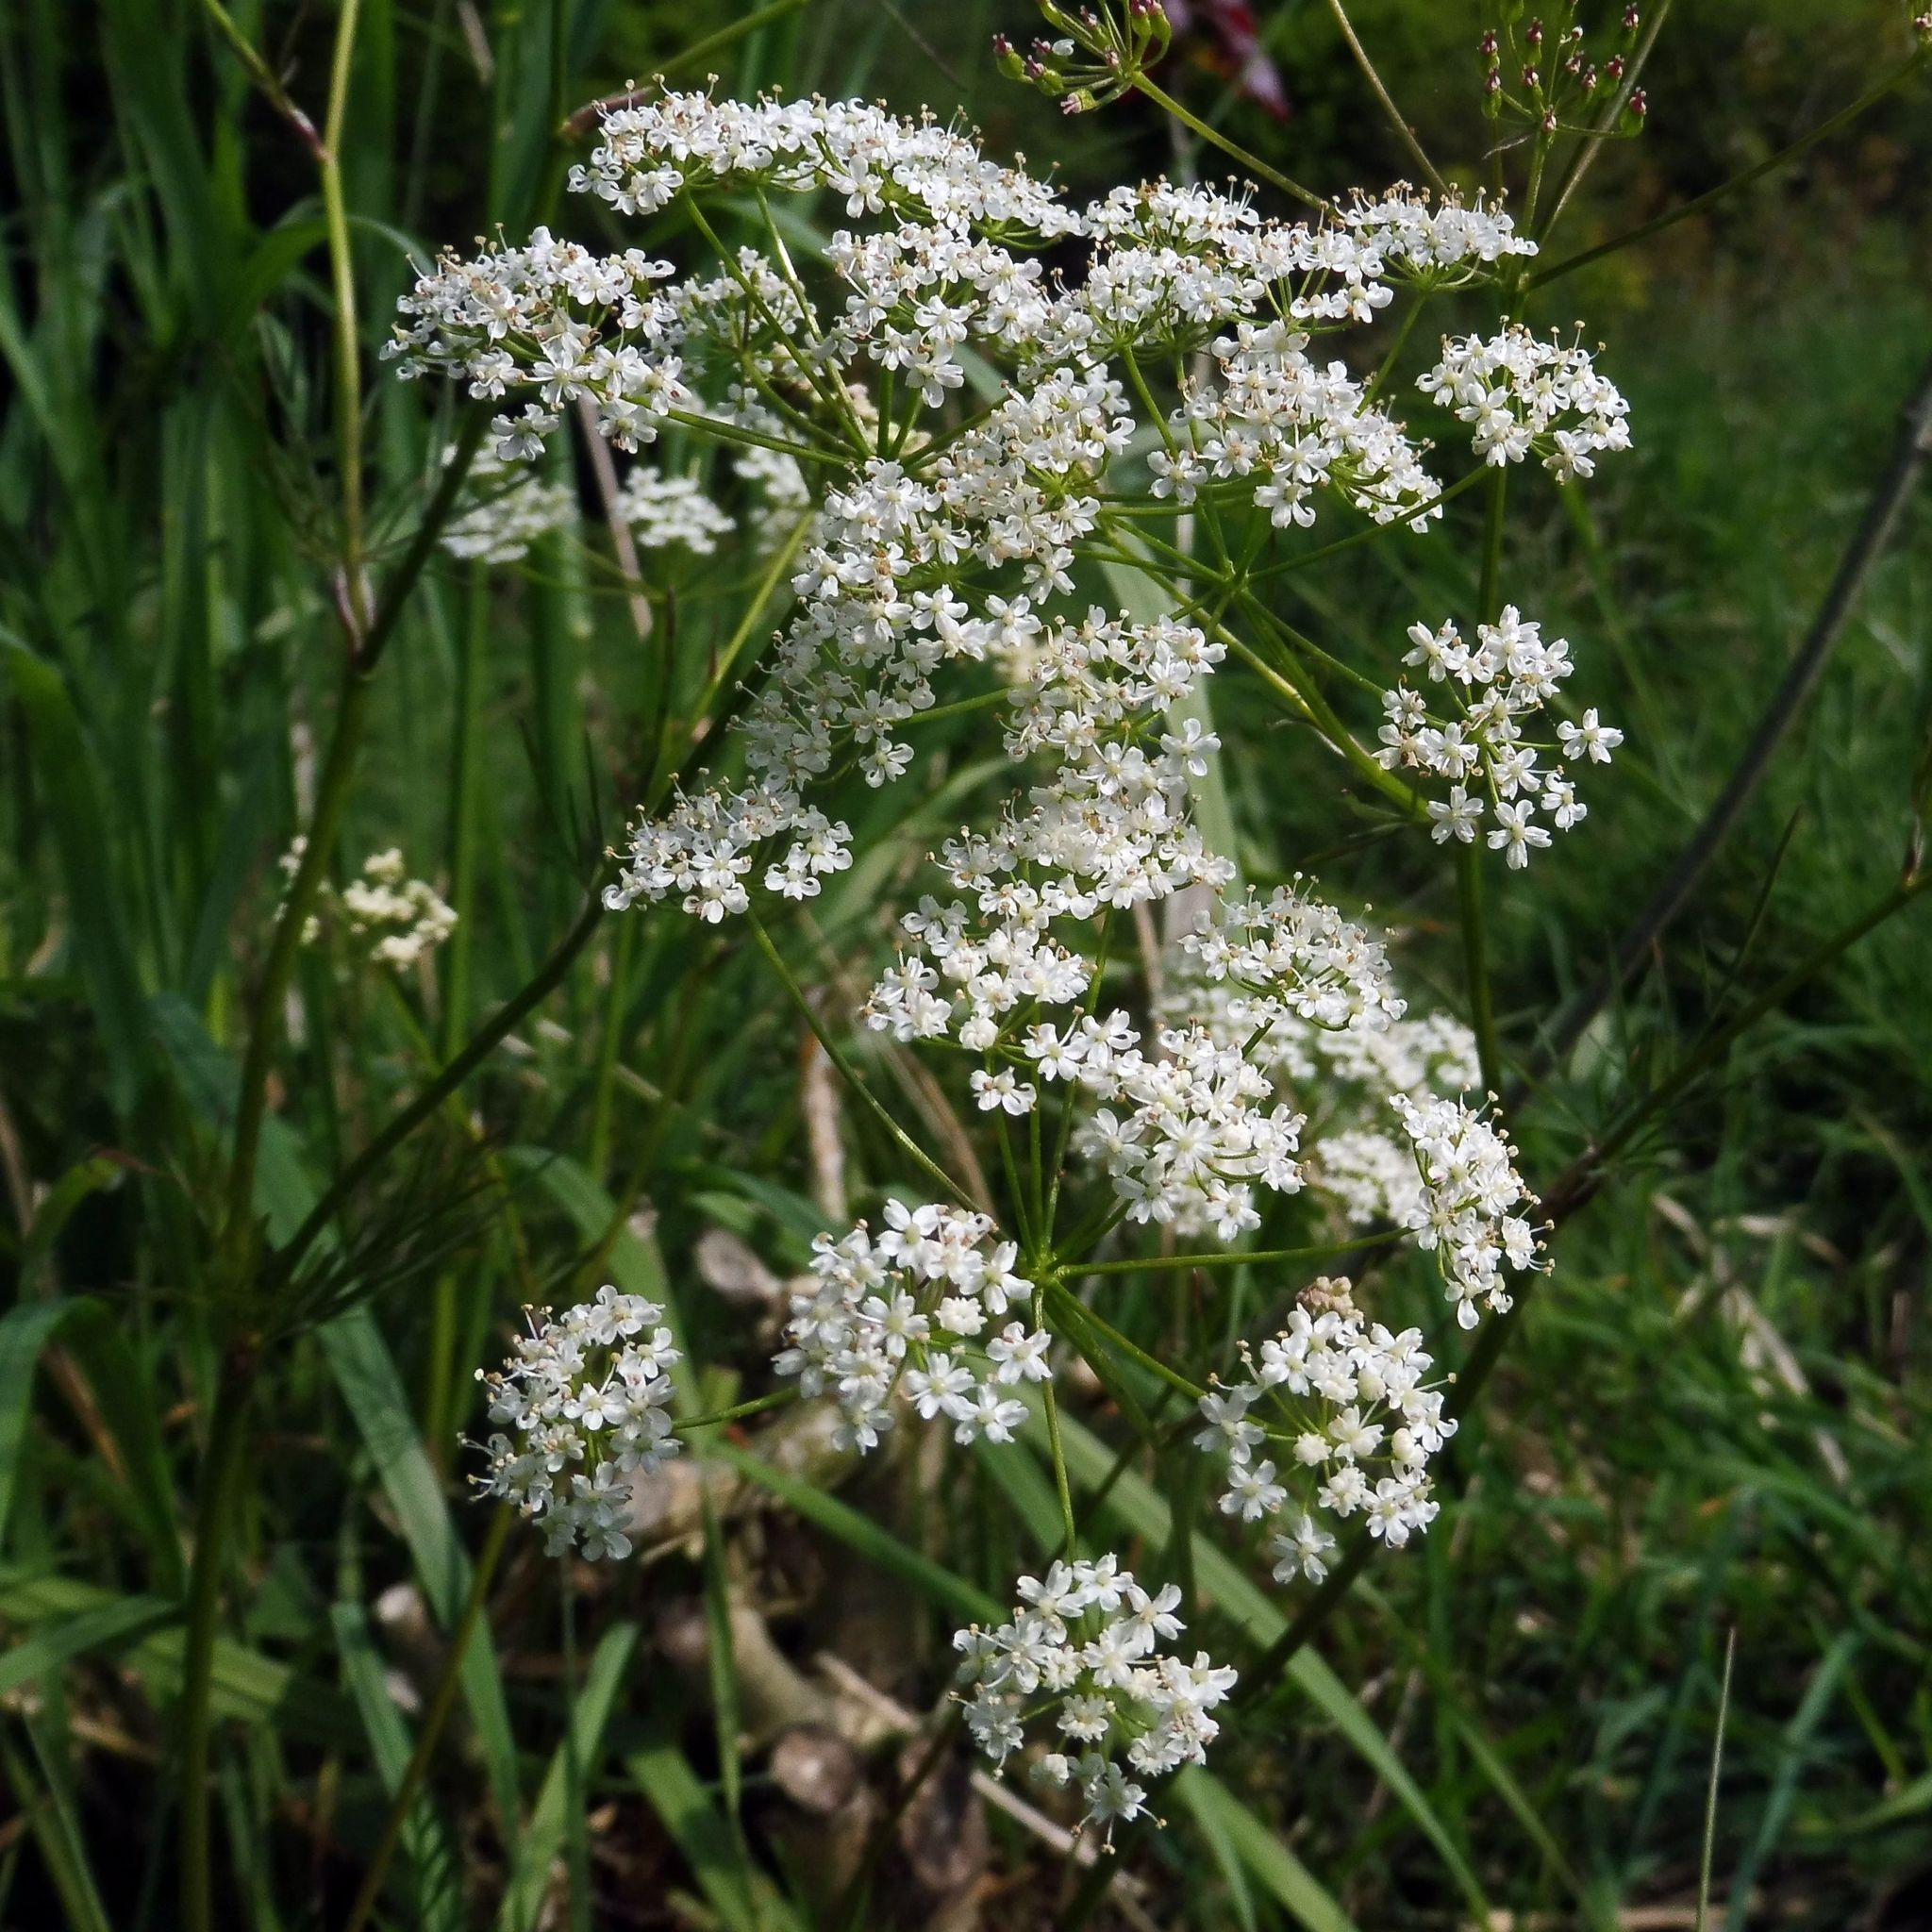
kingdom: Plantae
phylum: Tracheophyta
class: Magnoliopsida
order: Apiales
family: Apiaceae
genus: Conopodium
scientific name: Conopodium majus
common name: Pignut
